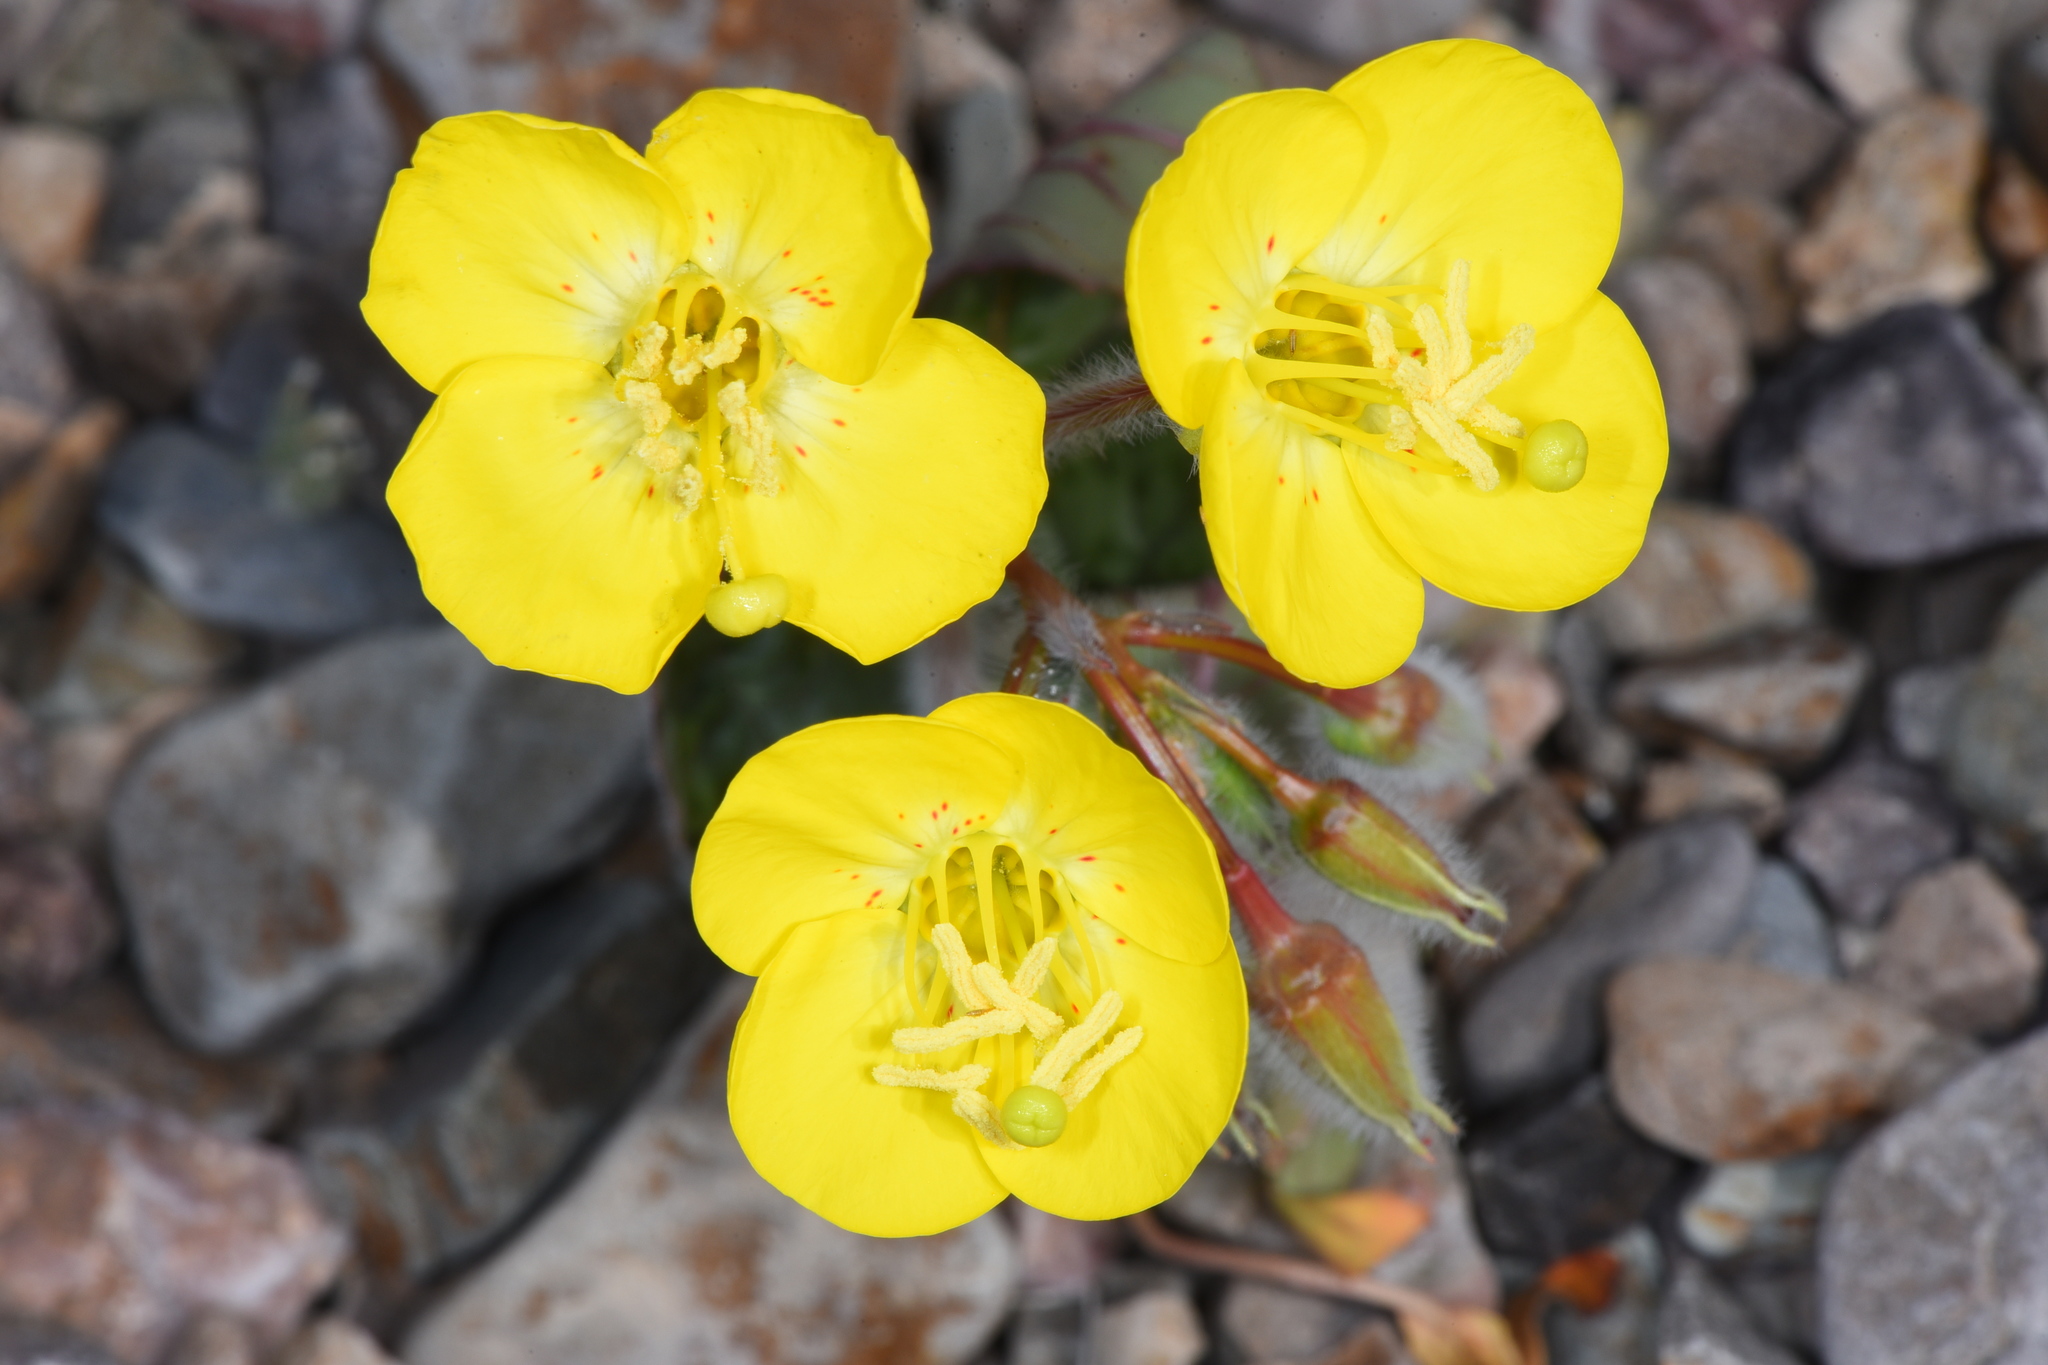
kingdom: Plantae
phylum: Tracheophyta
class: Magnoliopsida
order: Myrtales
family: Onagraceae
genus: Chylismia
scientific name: Chylismia brevipes
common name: Yellow cups
